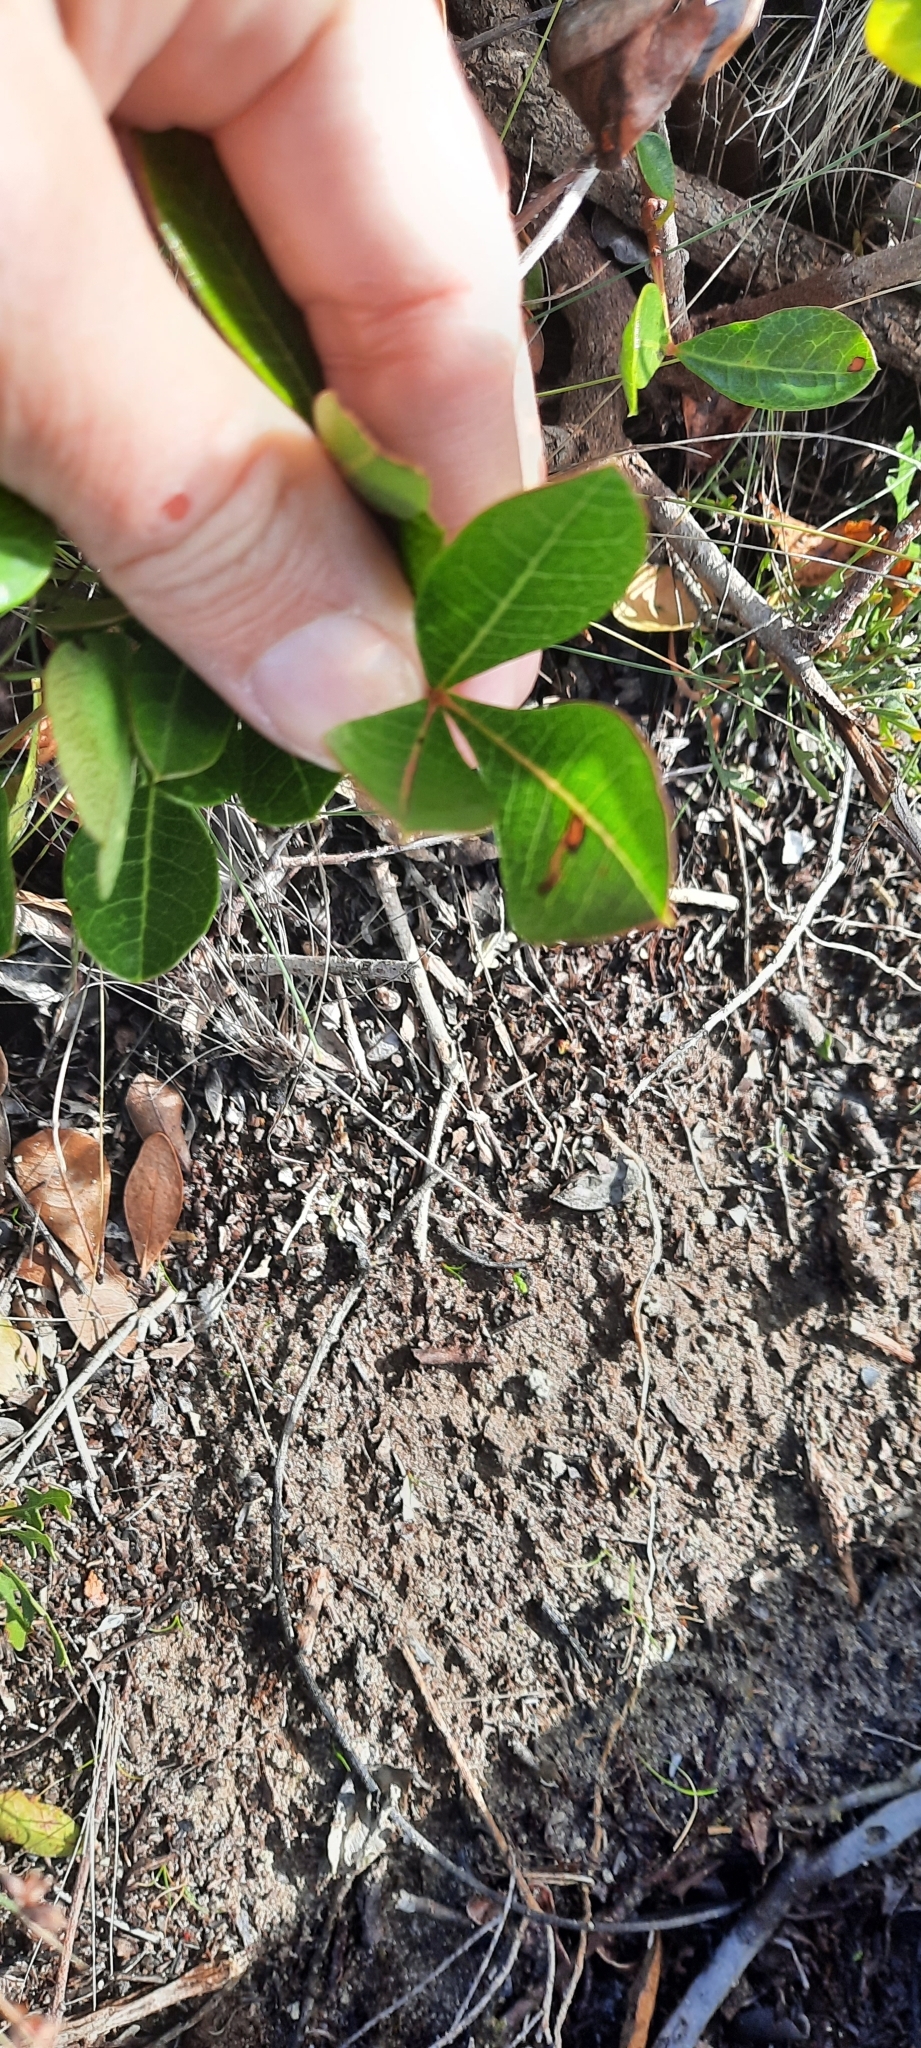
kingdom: Plantae
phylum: Tracheophyta
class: Magnoliopsida
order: Sapindales
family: Anacardiaceae
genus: Searsia
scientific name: Searsia laevigata
